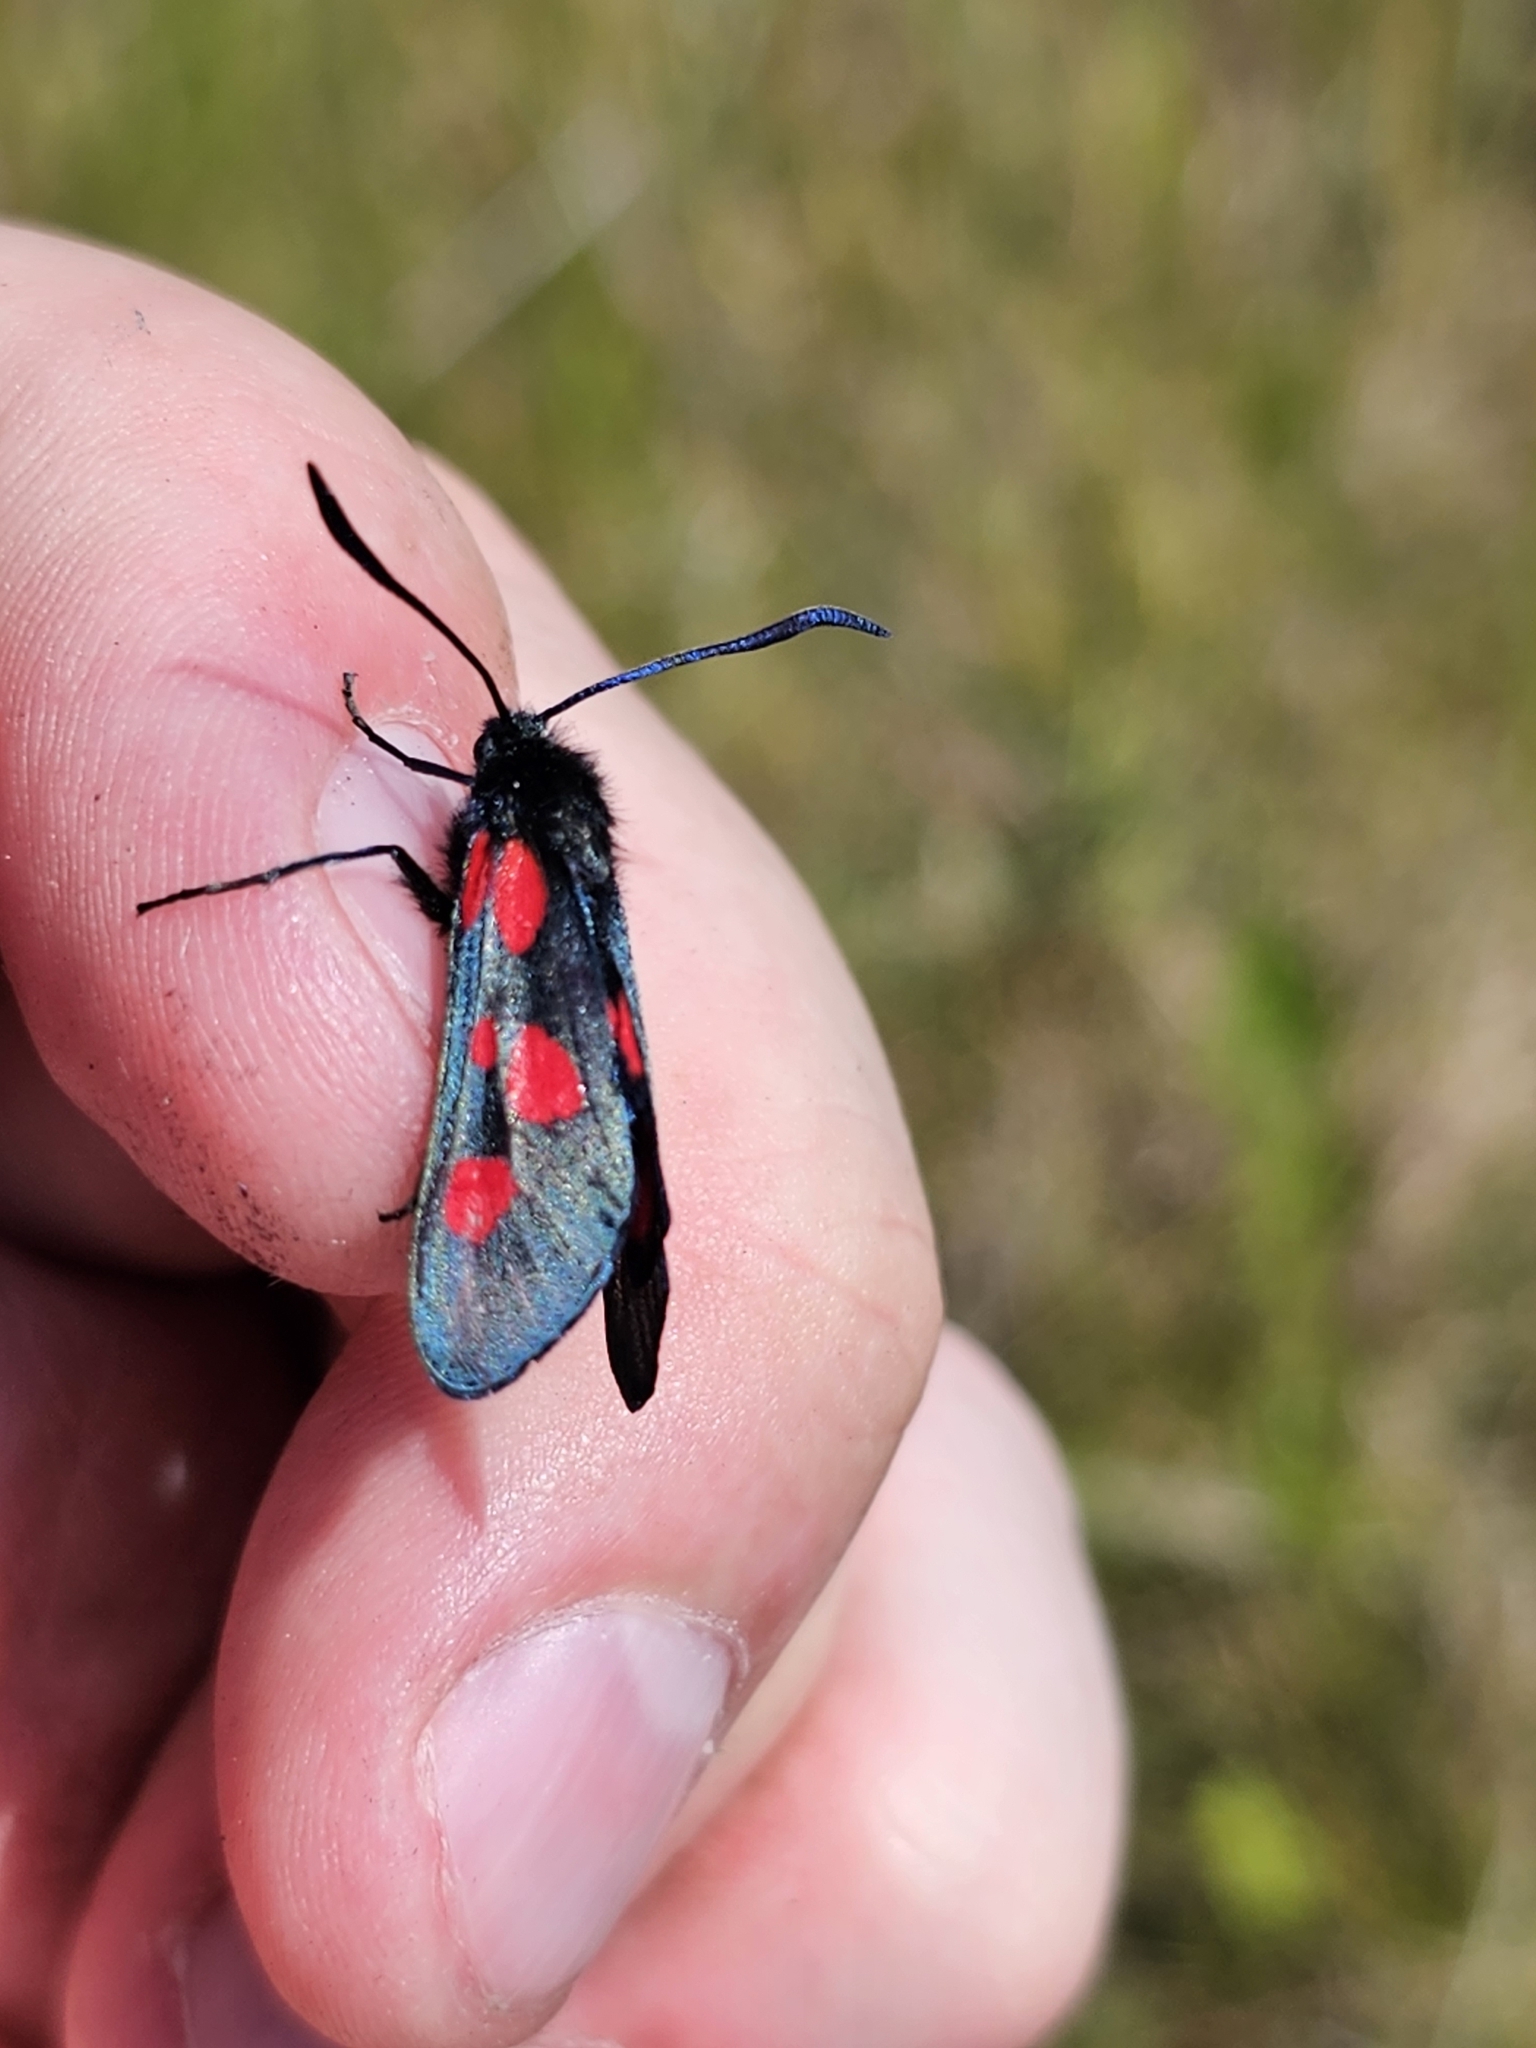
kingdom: Animalia
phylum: Arthropoda
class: Insecta
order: Lepidoptera
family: Zygaenidae
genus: Zygaena
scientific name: Zygaena lonicerae
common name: Narrow-bordered five-spot burnet
